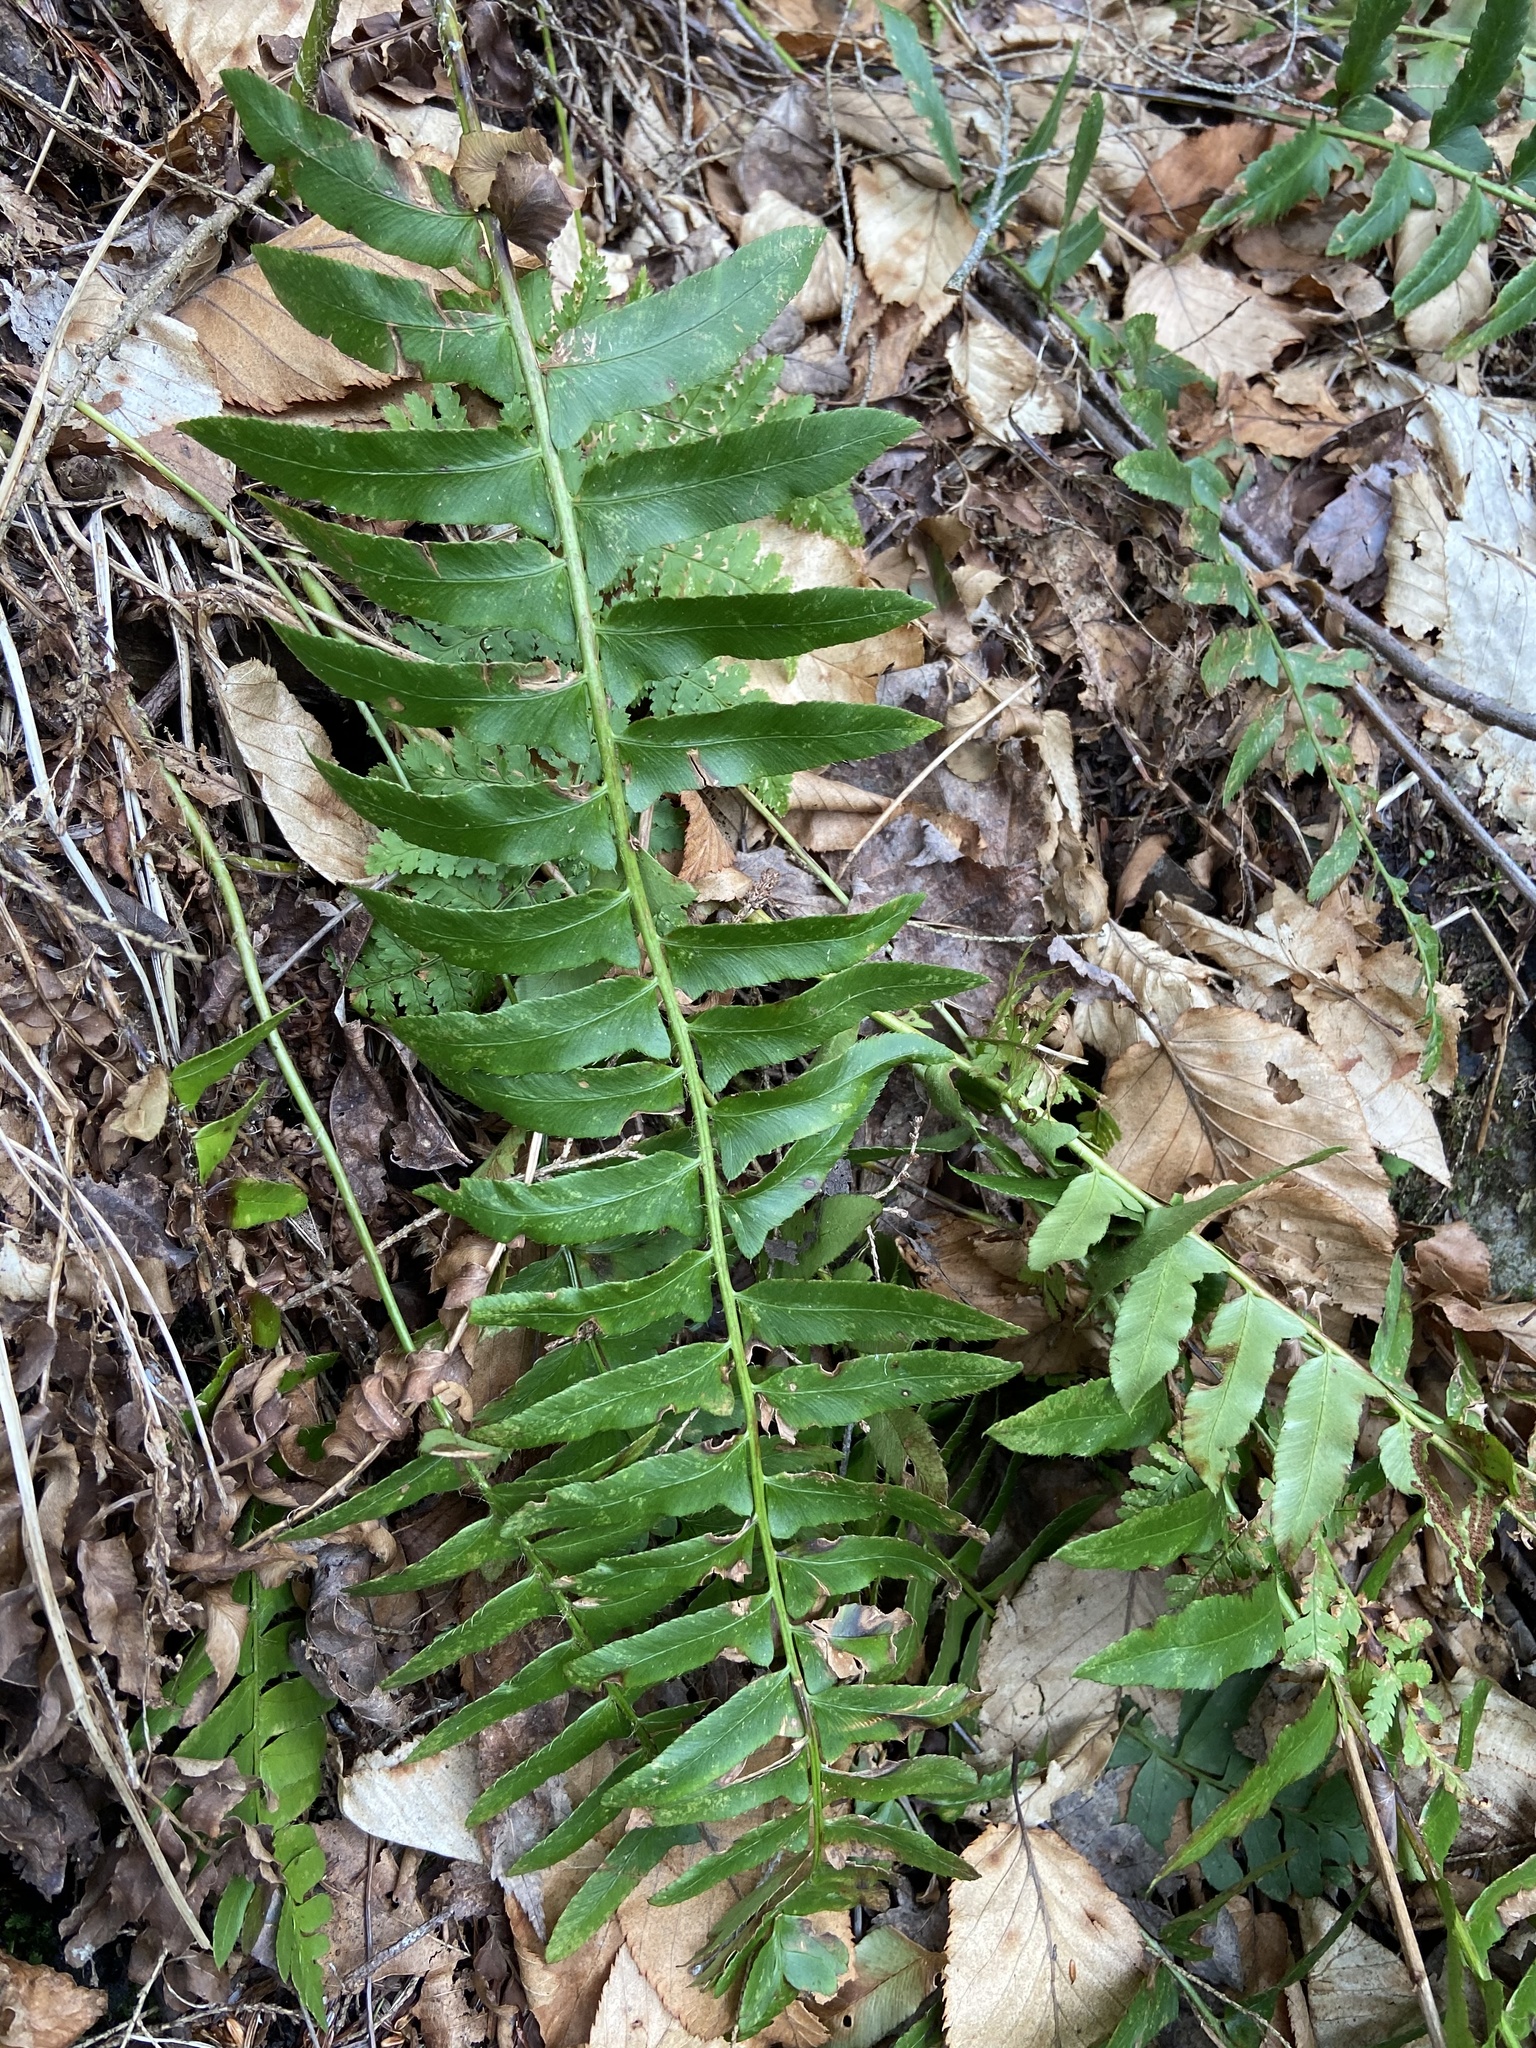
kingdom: Plantae
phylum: Tracheophyta
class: Polypodiopsida
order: Polypodiales
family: Dryopteridaceae
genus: Polystichum
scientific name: Polystichum acrostichoides
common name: Christmas fern
